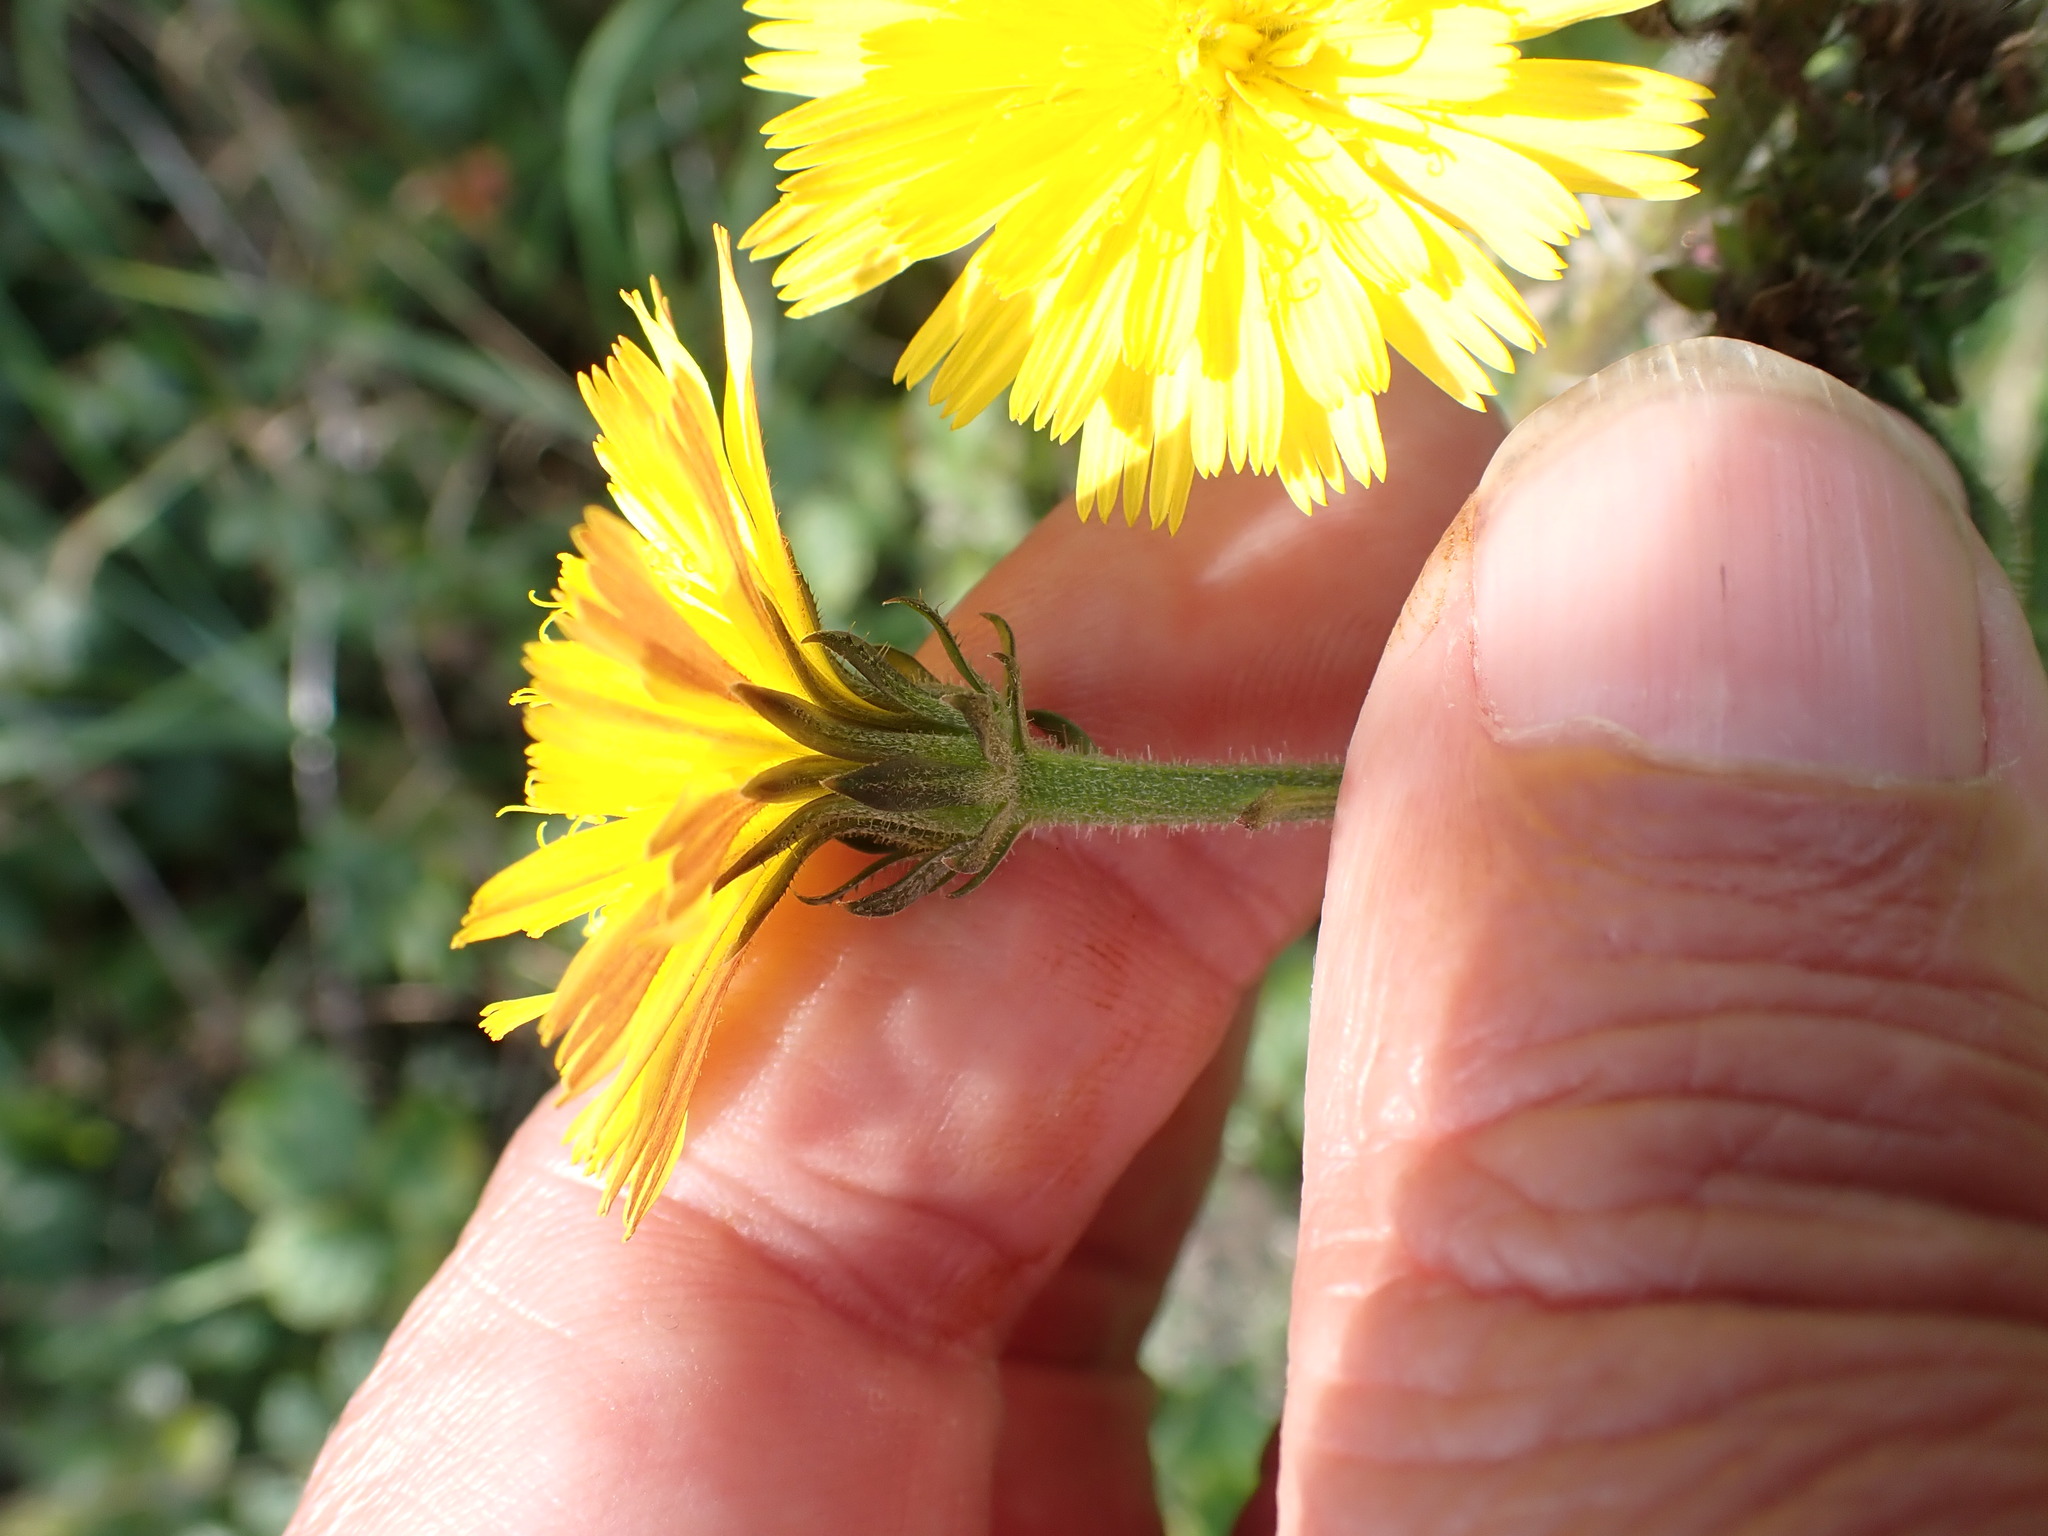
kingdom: Plantae
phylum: Tracheophyta
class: Magnoliopsida
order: Asterales
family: Asteraceae
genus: Picris
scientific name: Picris hieracioides
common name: Hawkweed oxtongue
